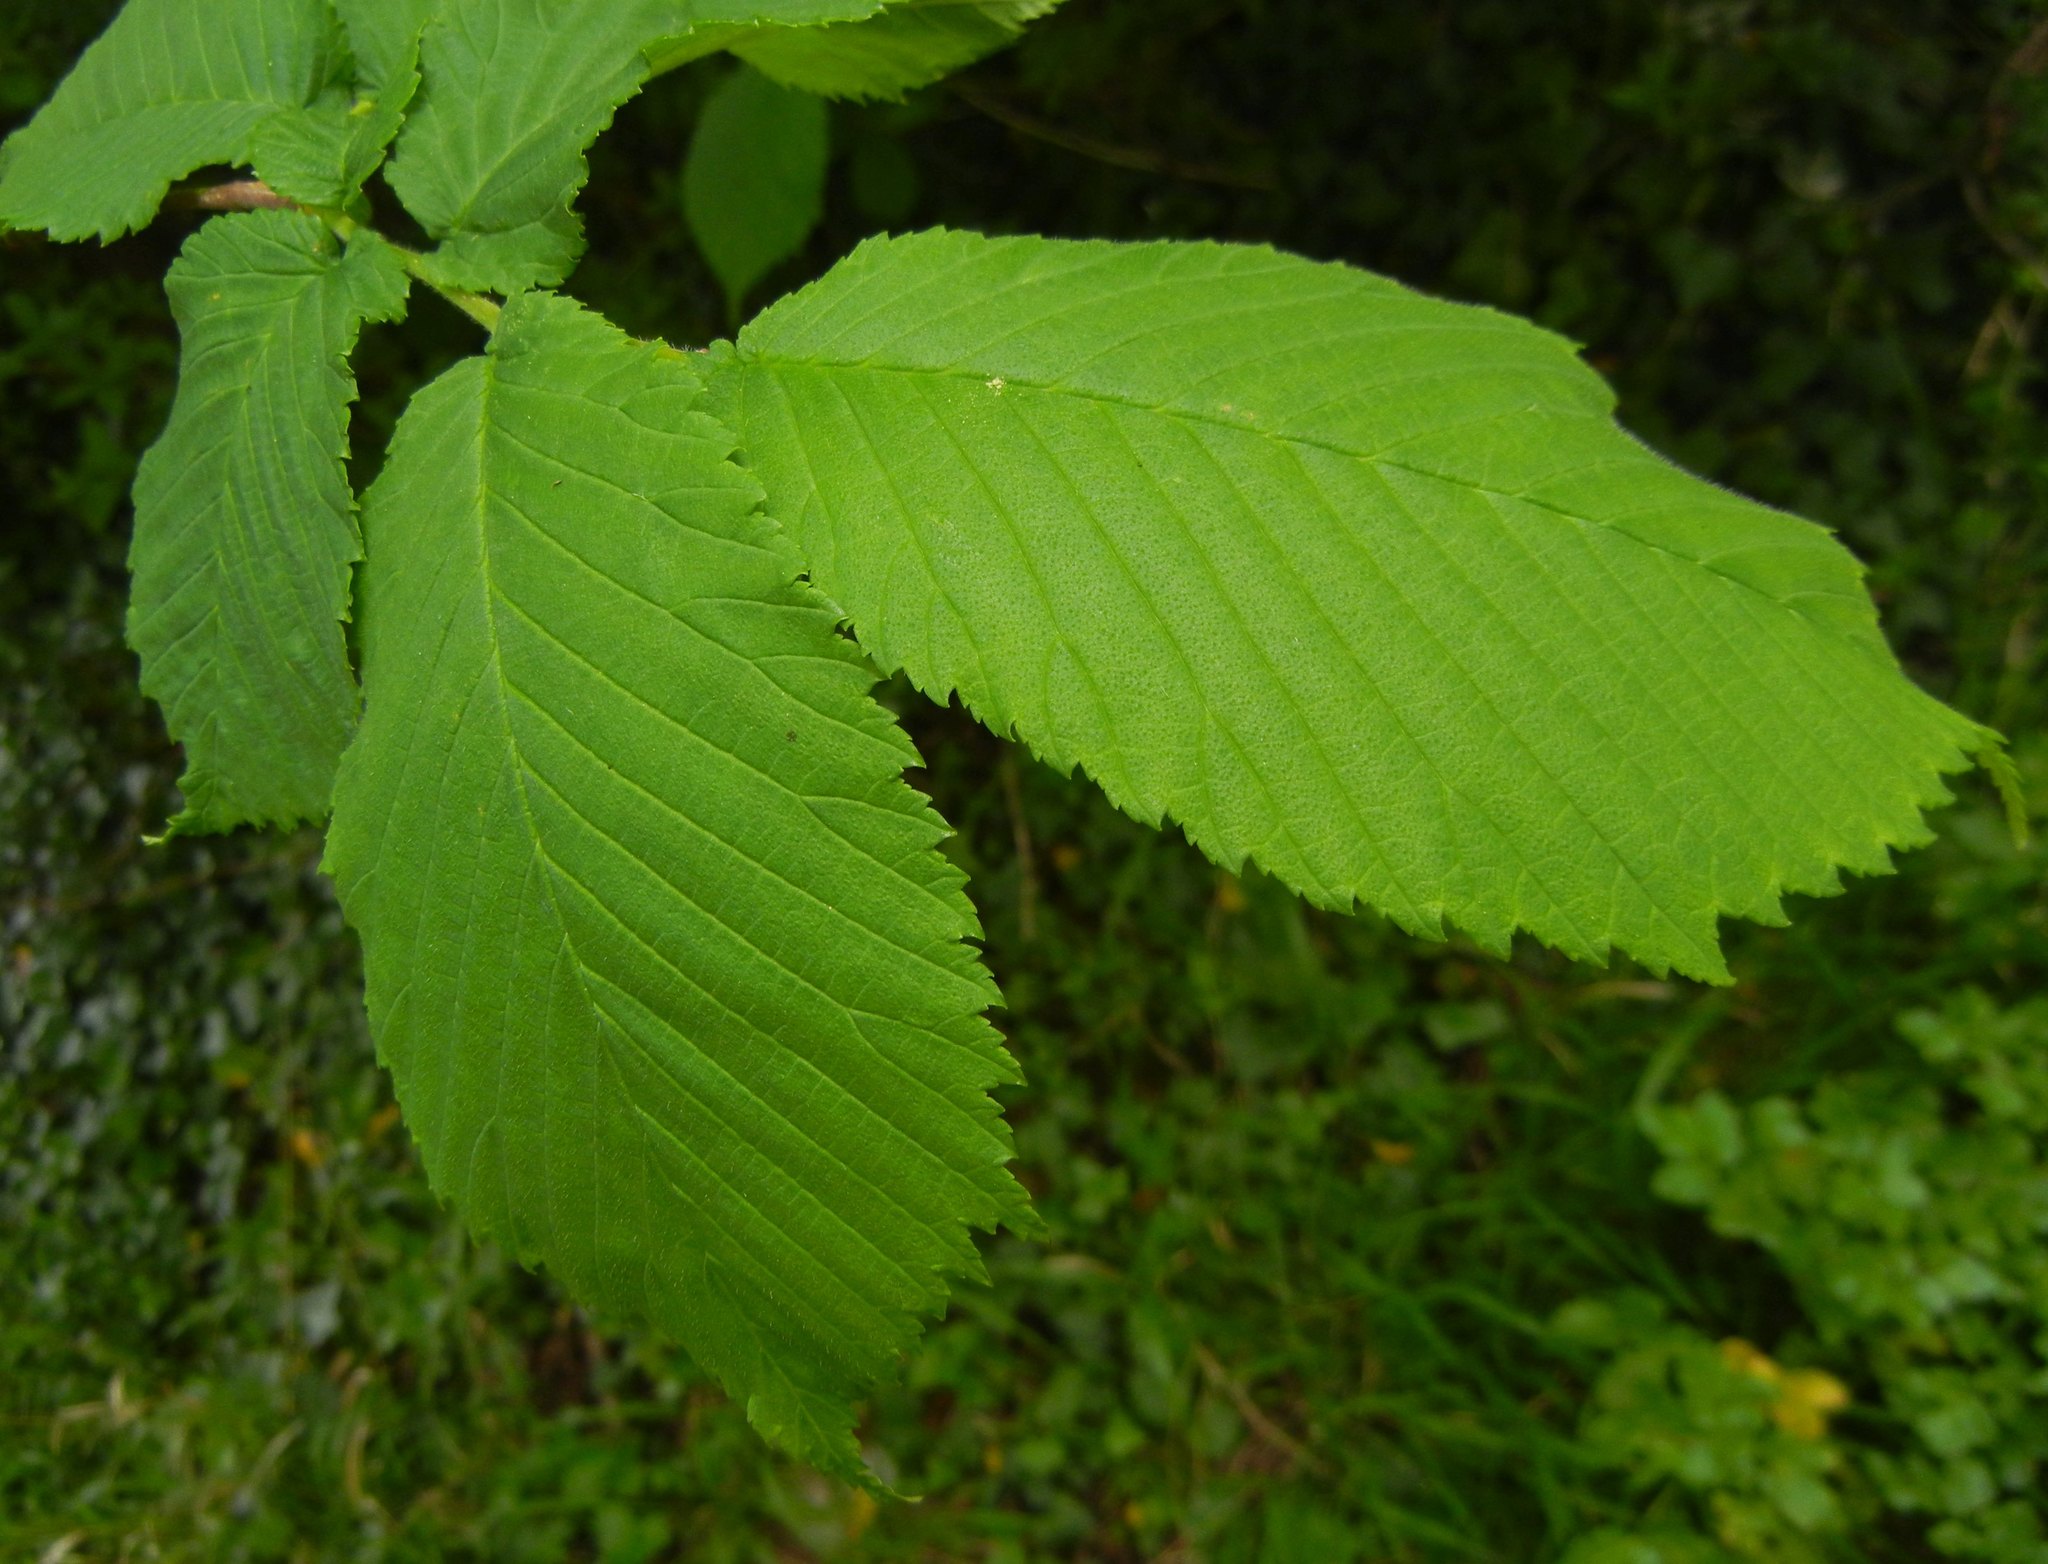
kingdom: Plantae
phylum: Tracheophyta
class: Magnoliopsida
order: Rosales
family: Ulmaceae
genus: Ulmus
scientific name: Ulmus glabra
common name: Wych elm
